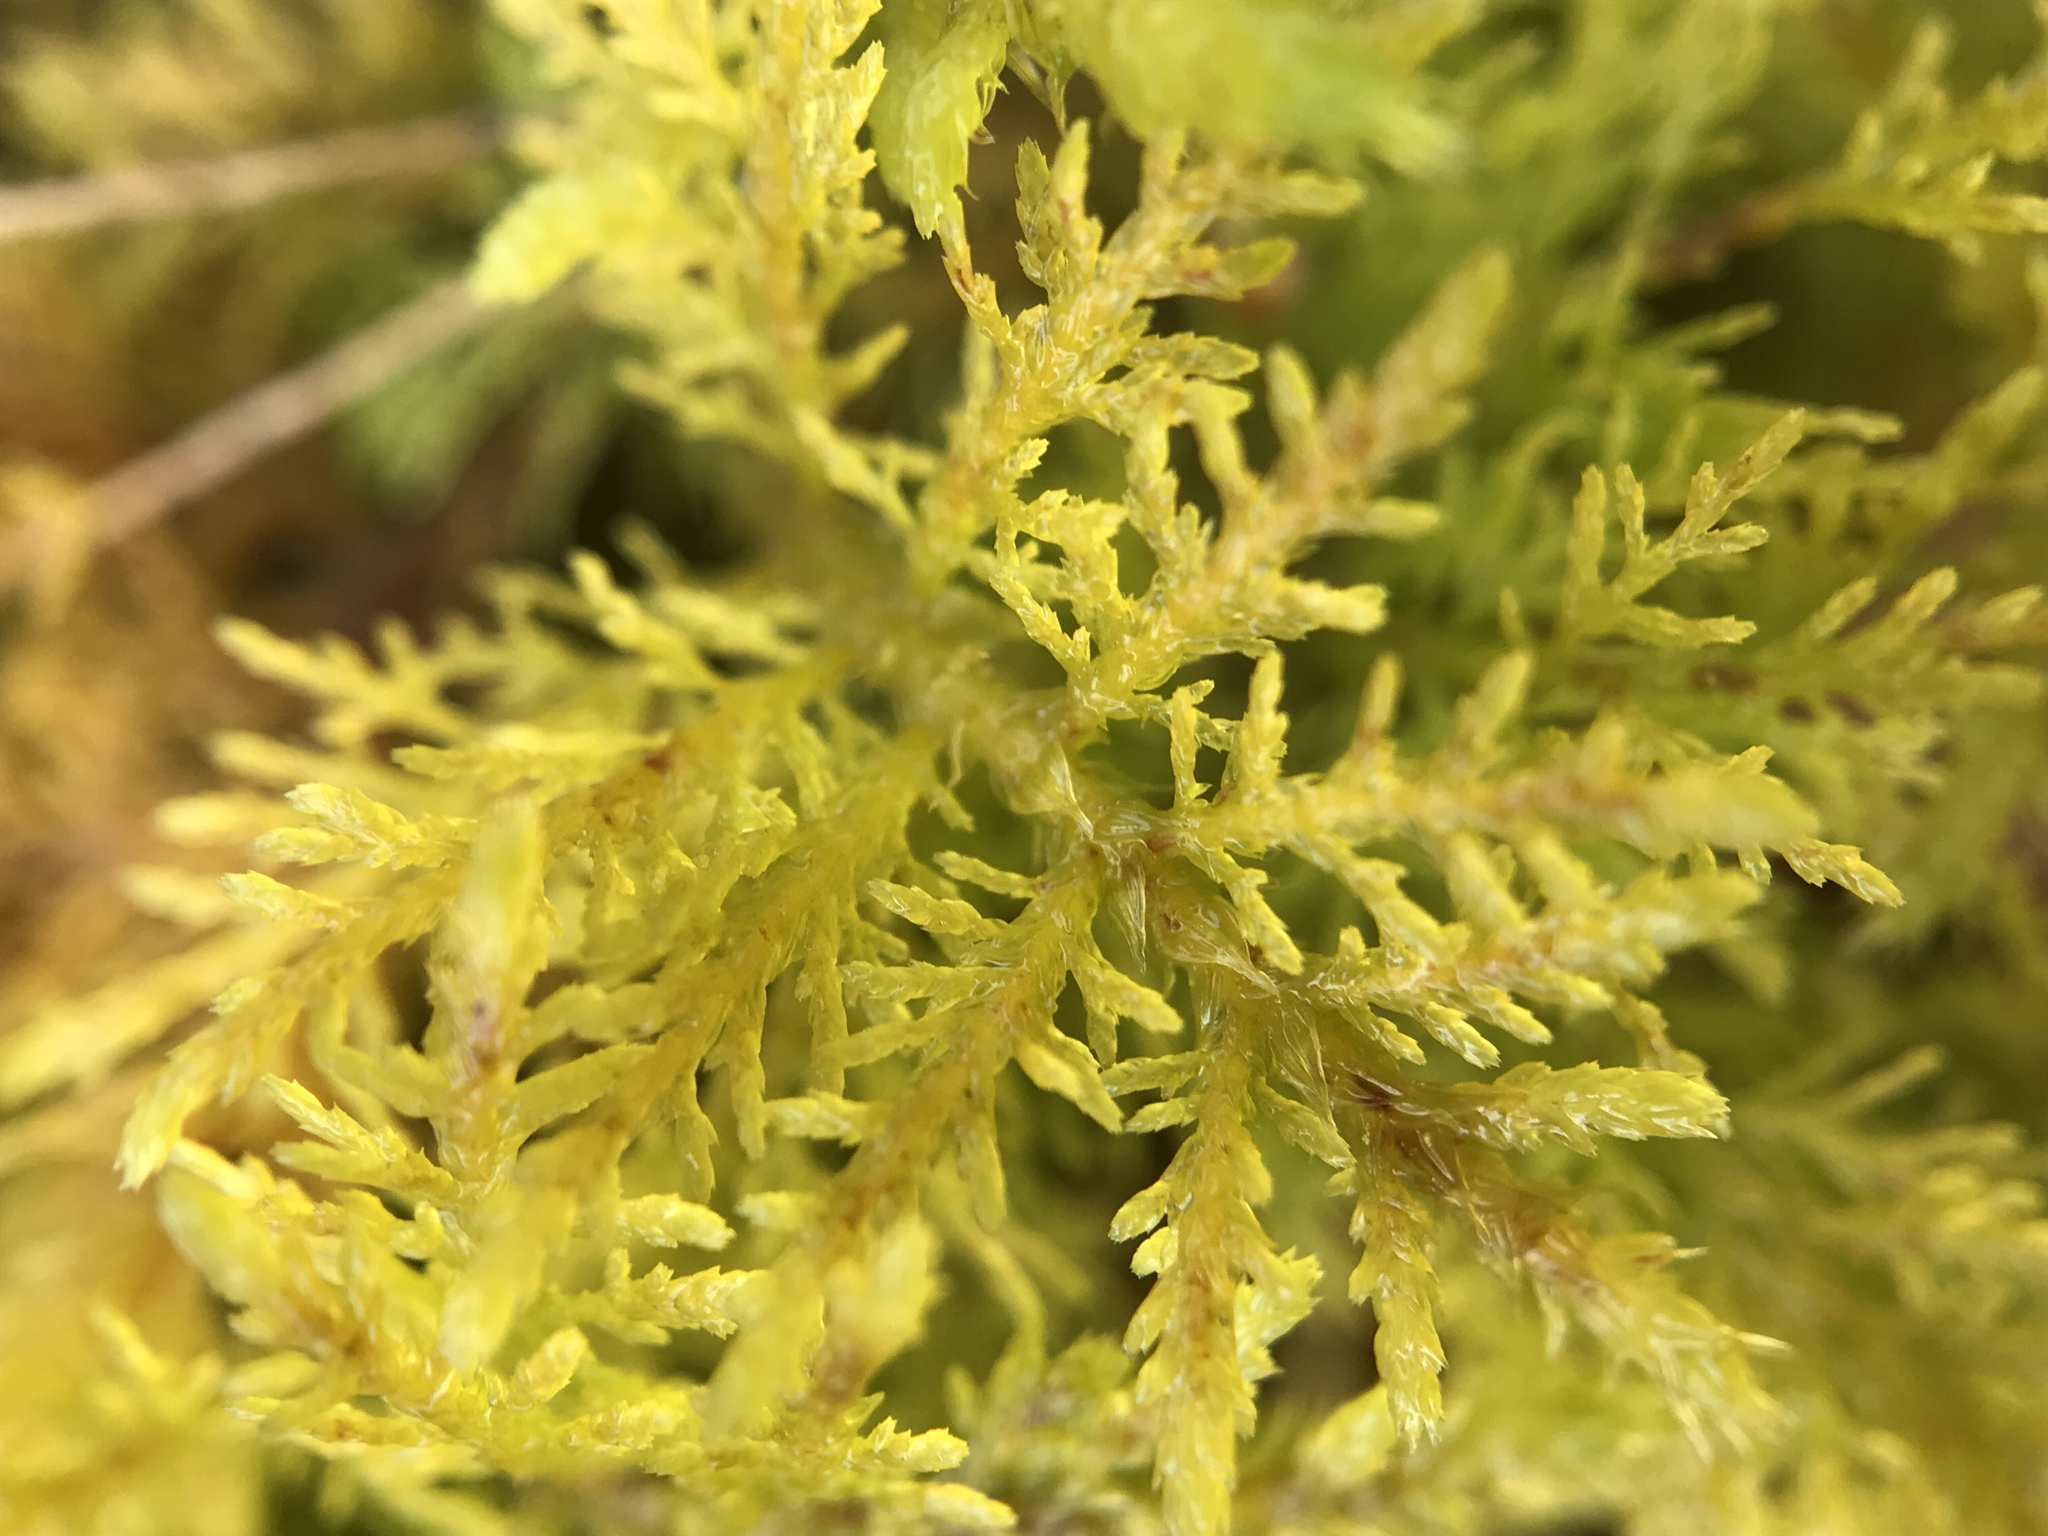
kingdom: Plantae
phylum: Bryophyta
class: Bryopsida
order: Hypnales
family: Thuidiaceae
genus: Thuidium
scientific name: Thuidium tamariscinum
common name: Common tamarisk-moss
